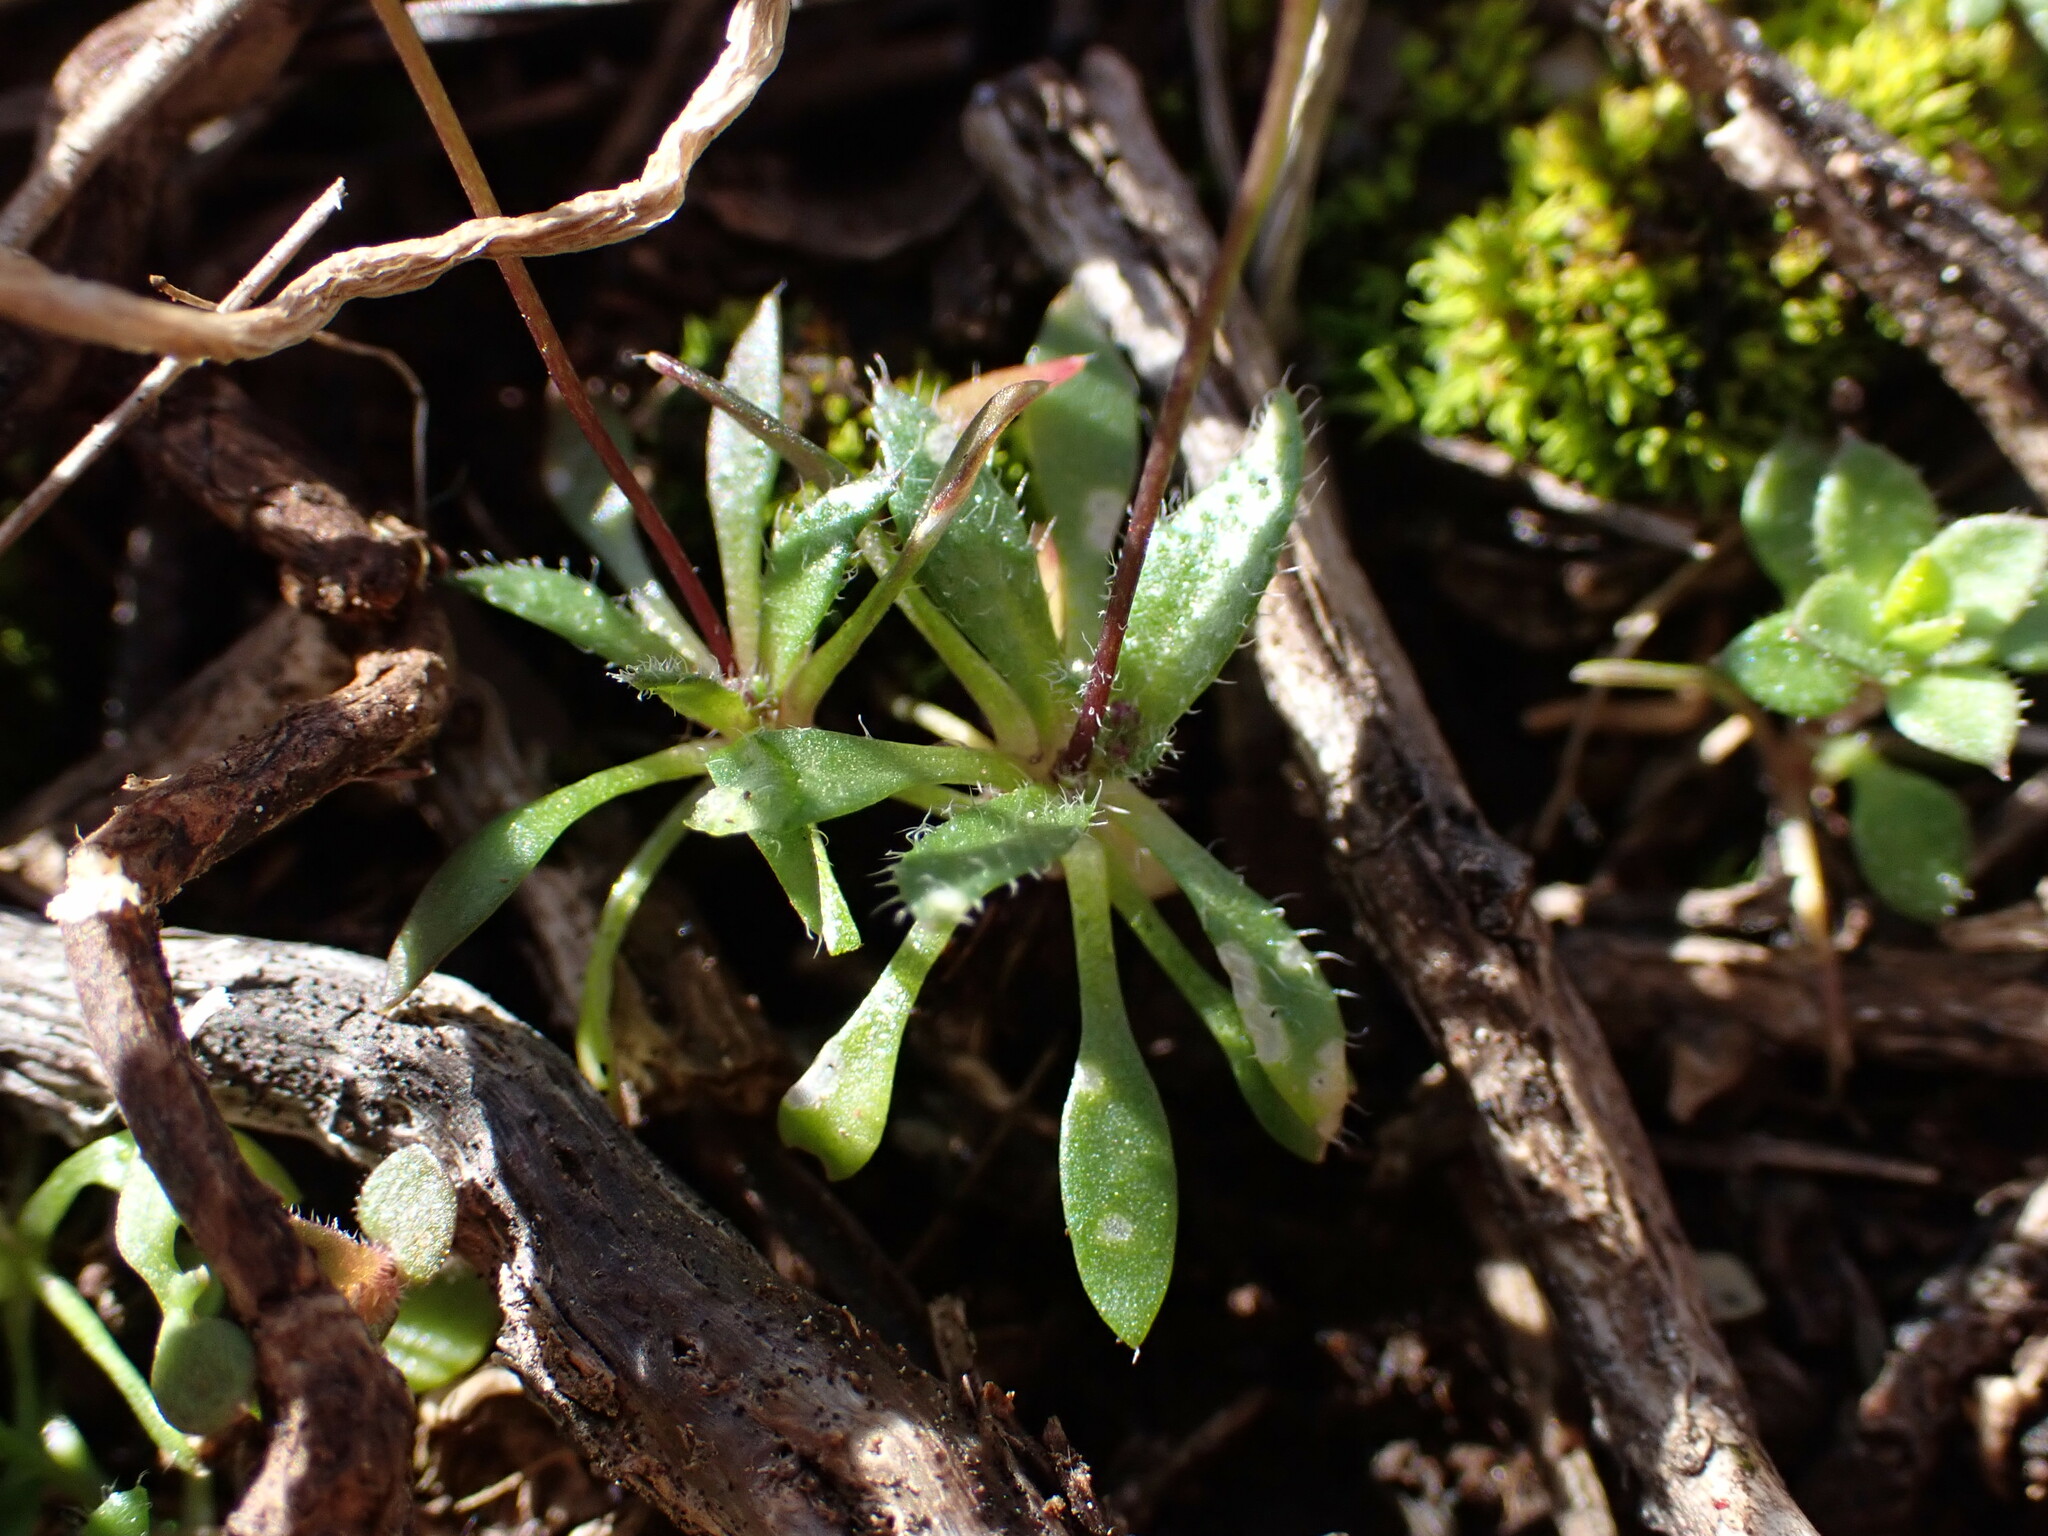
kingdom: Plantae
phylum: Tracheophyta
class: Magnoliopsida
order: Brassicales
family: Brassicaceae
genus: Draba
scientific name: Draba verna
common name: Spring draba
